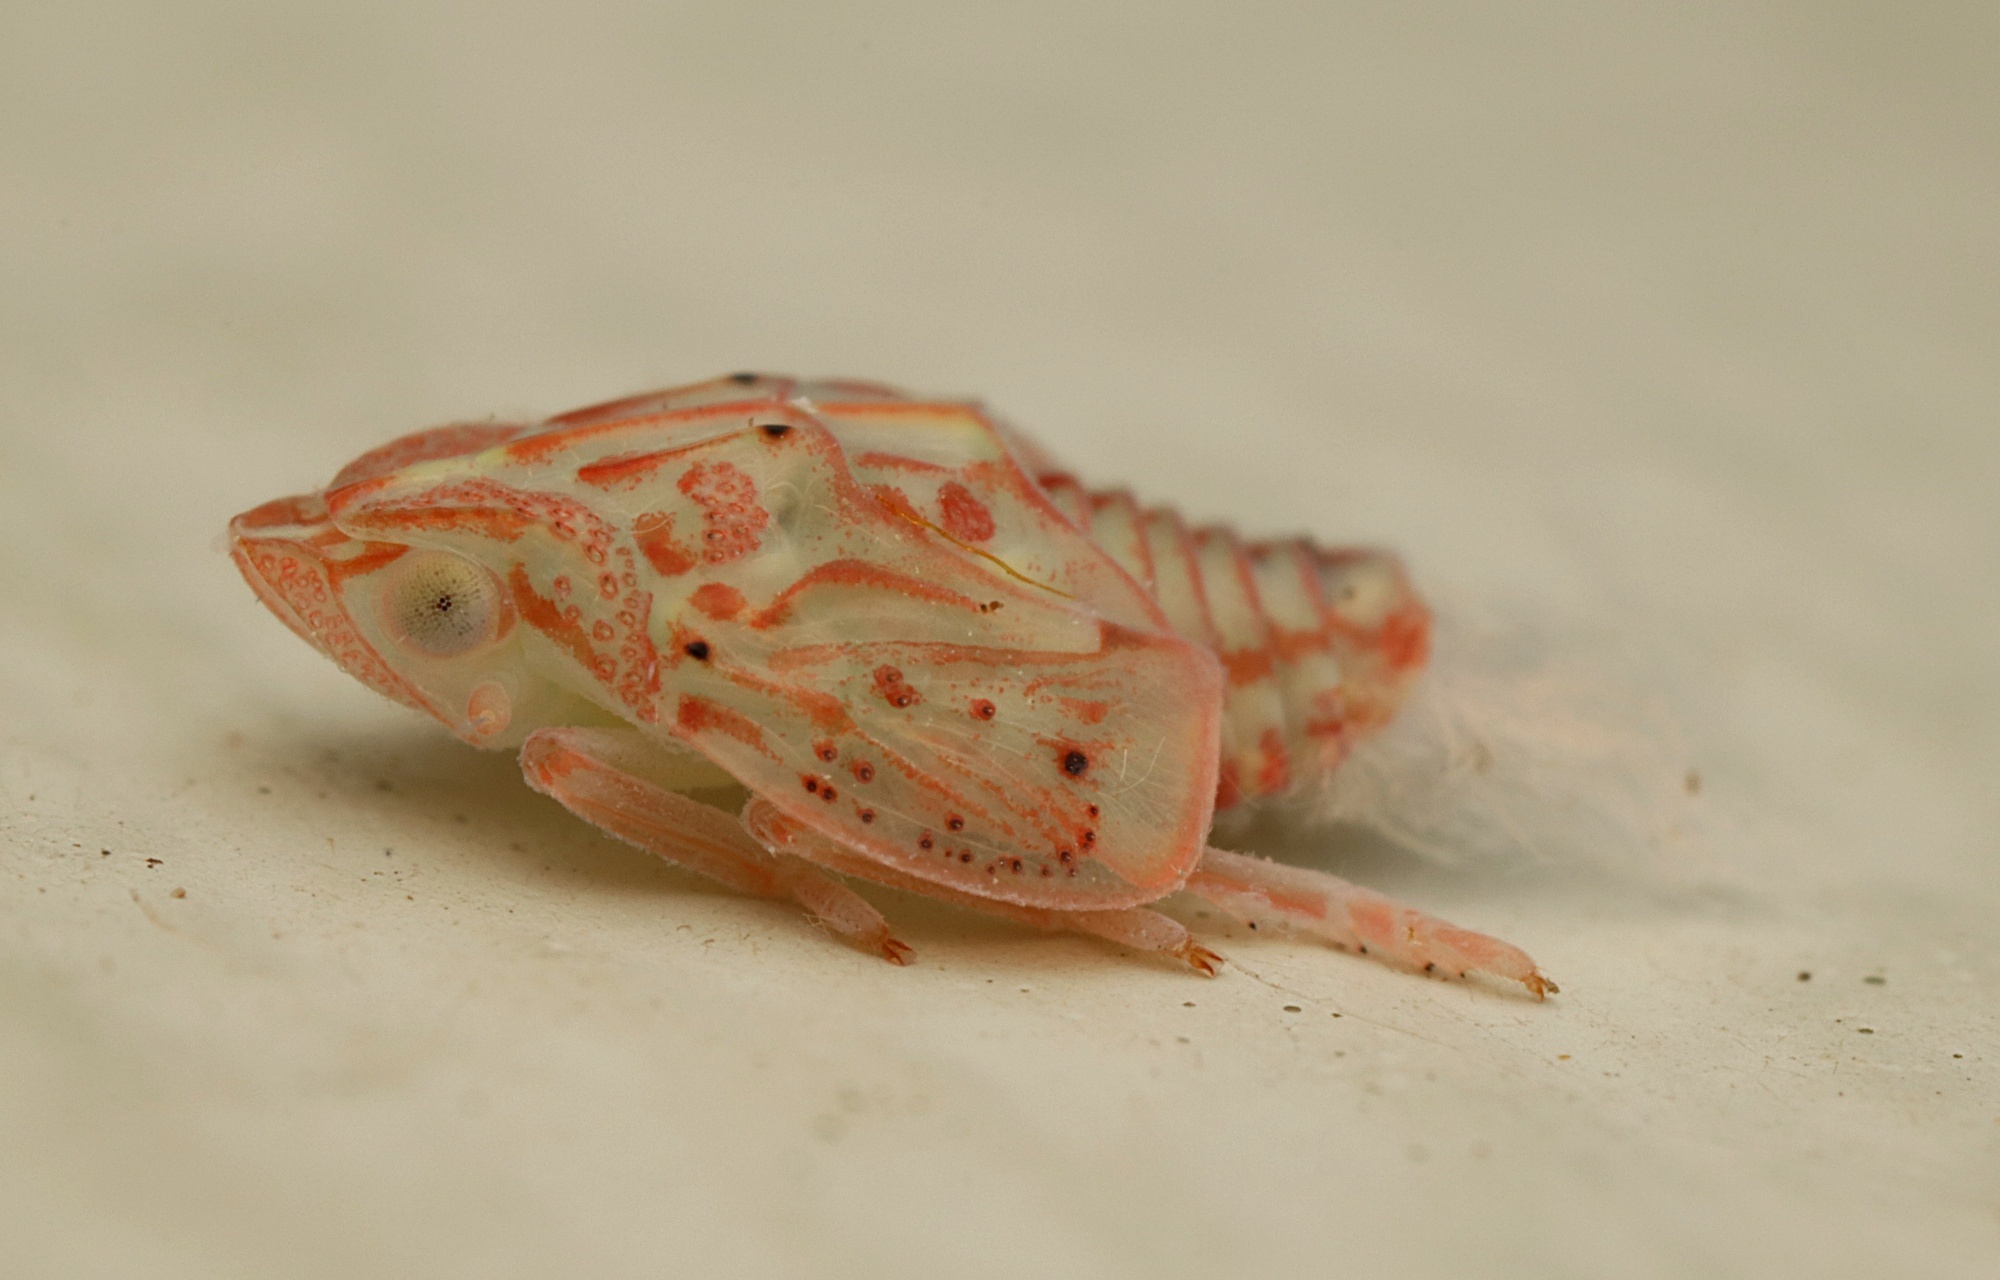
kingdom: Animalia
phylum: Arthropoda
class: Insecta
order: Hemiptera
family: Flatidae
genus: Siphanta
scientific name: Siphanta acuta
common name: Torpedo bug
